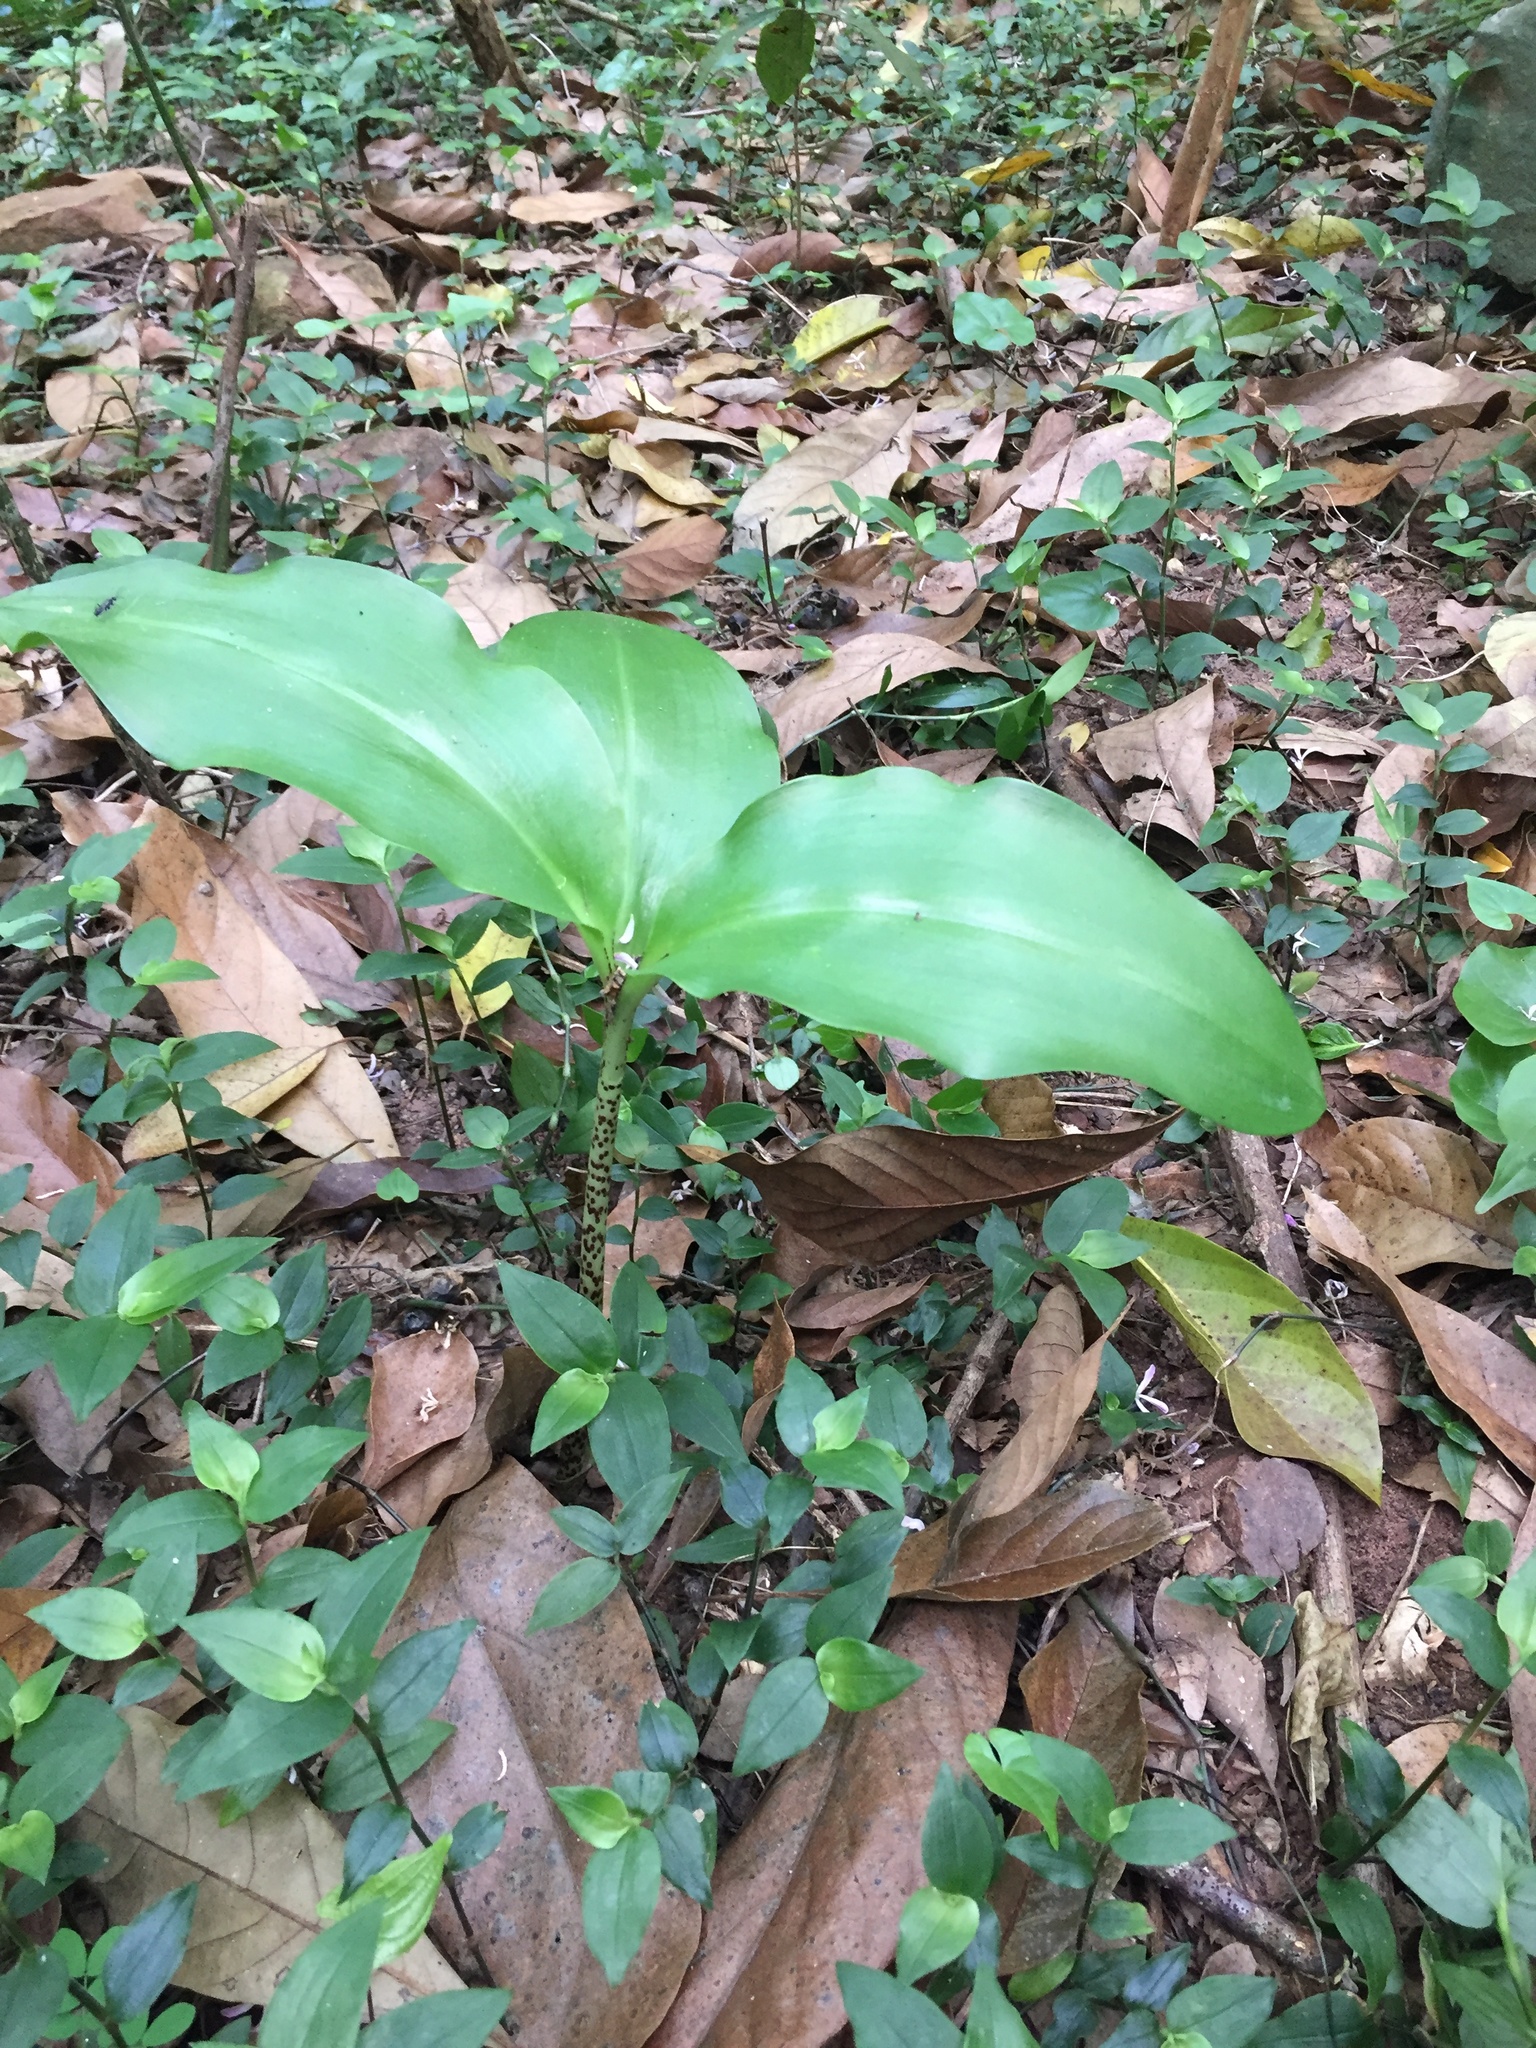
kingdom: Plantae
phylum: Tracheophyta
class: Liliopsida
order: Asparagales
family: Amaryllidaceae
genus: Scadoxus
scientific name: Scadoxus puniceus
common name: Royal-paintbrush
